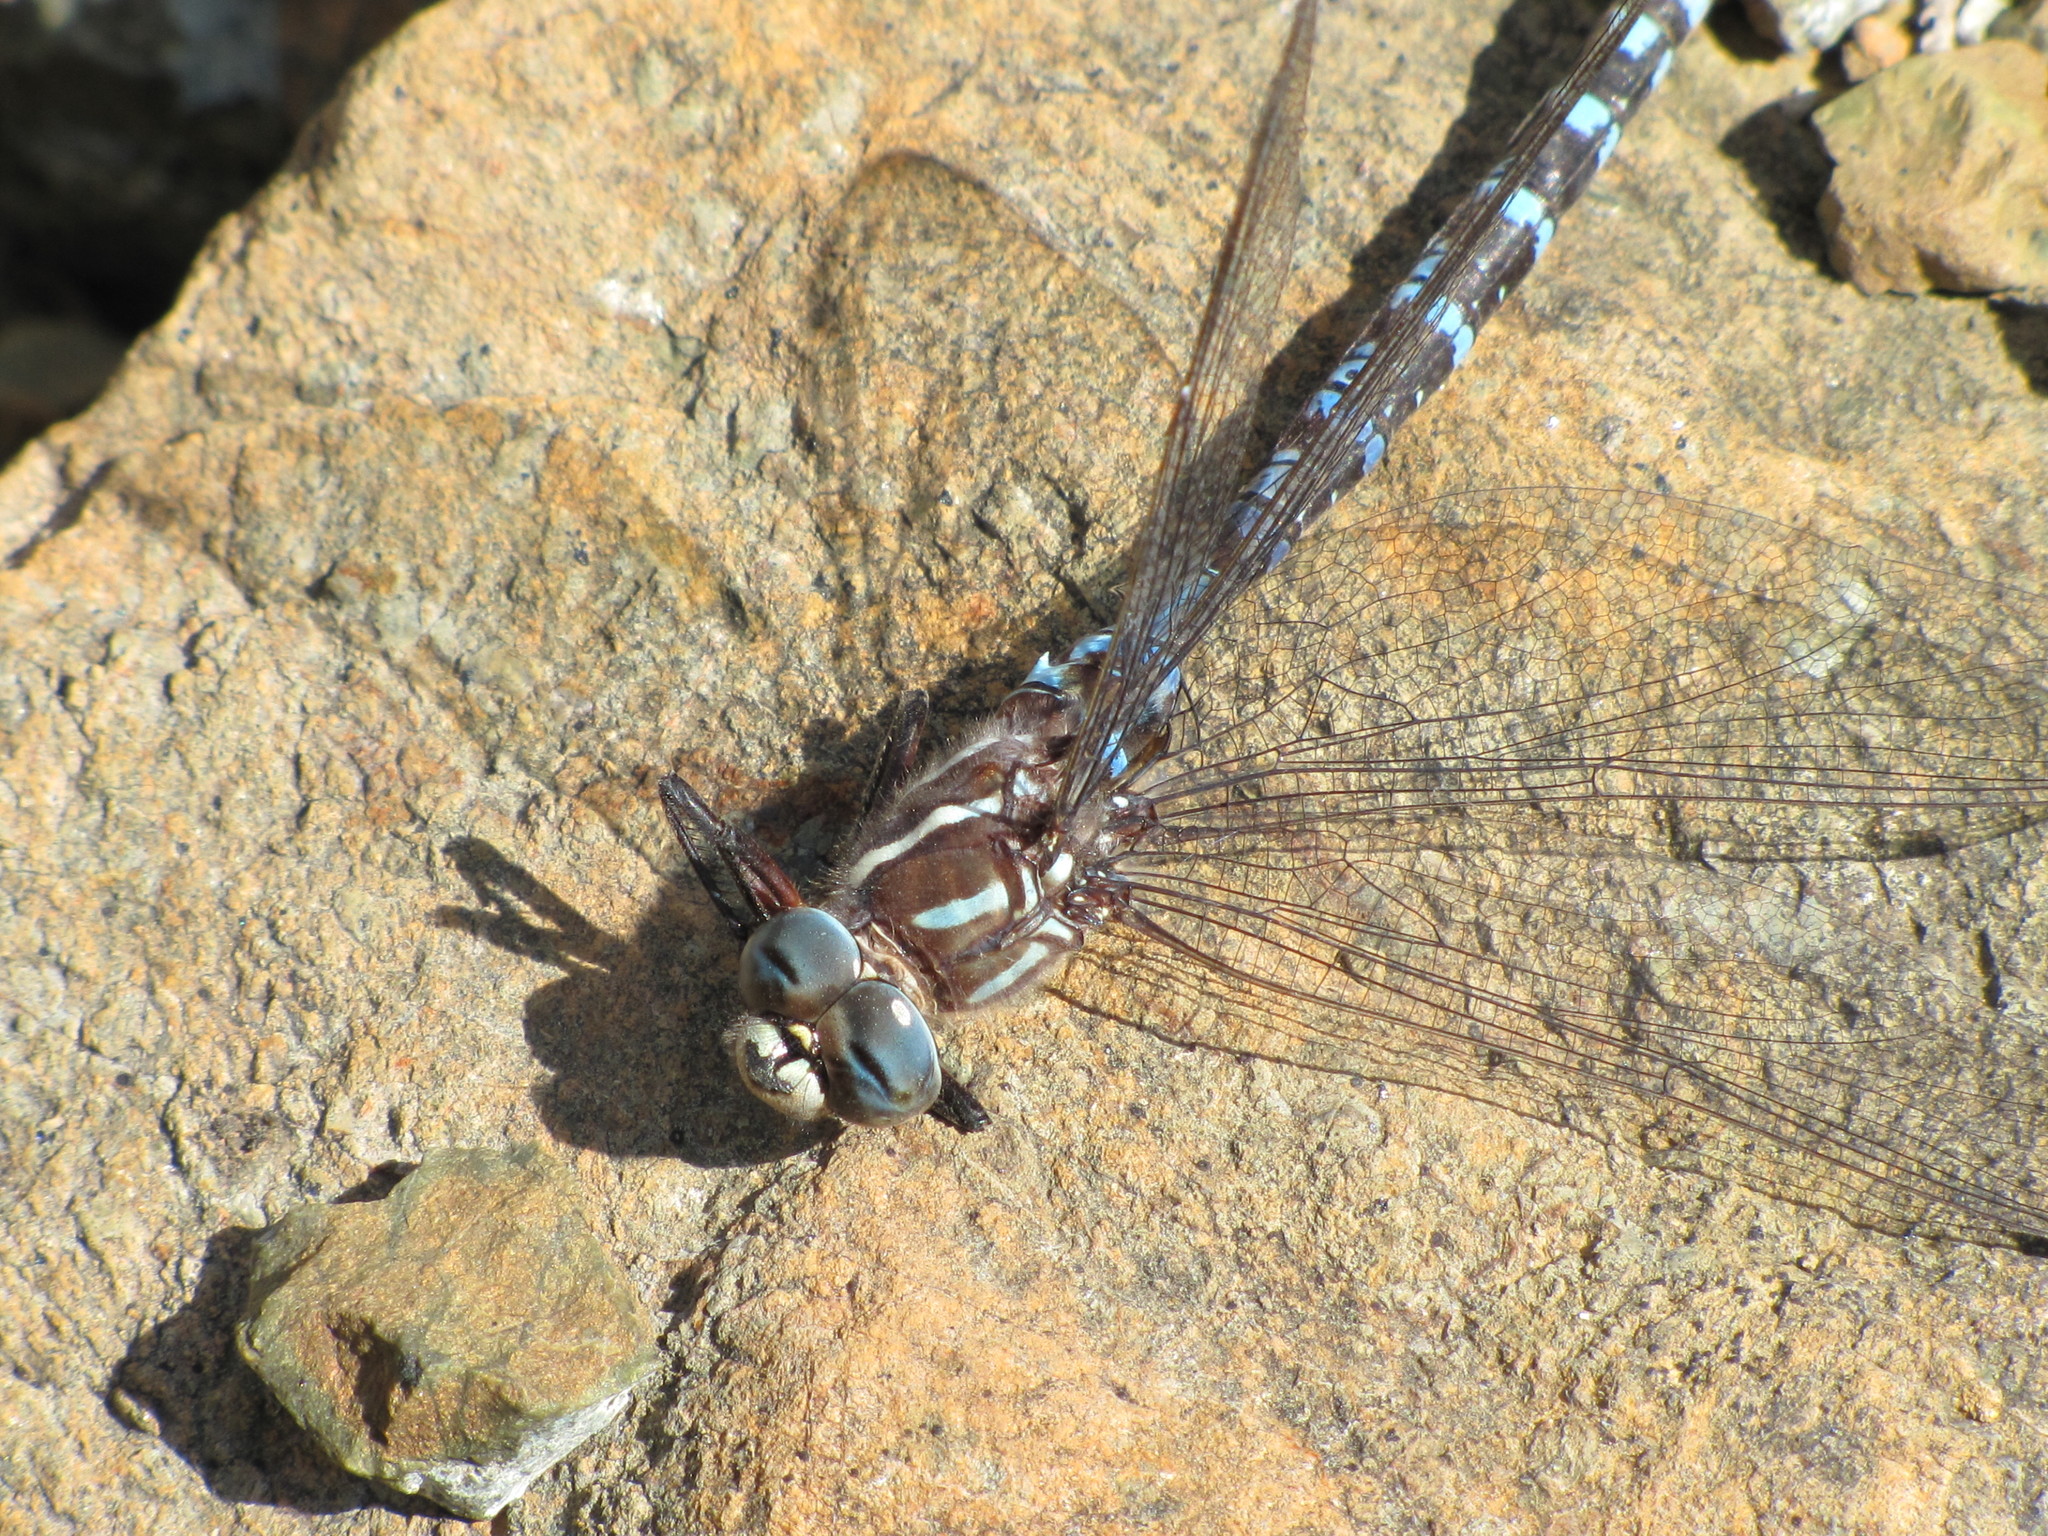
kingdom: Animalia
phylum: Arthropoda
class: Insecta
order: Odonata
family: Aeshnidae
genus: Aeshna
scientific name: Aeshna walkeri
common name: Walker's darner
